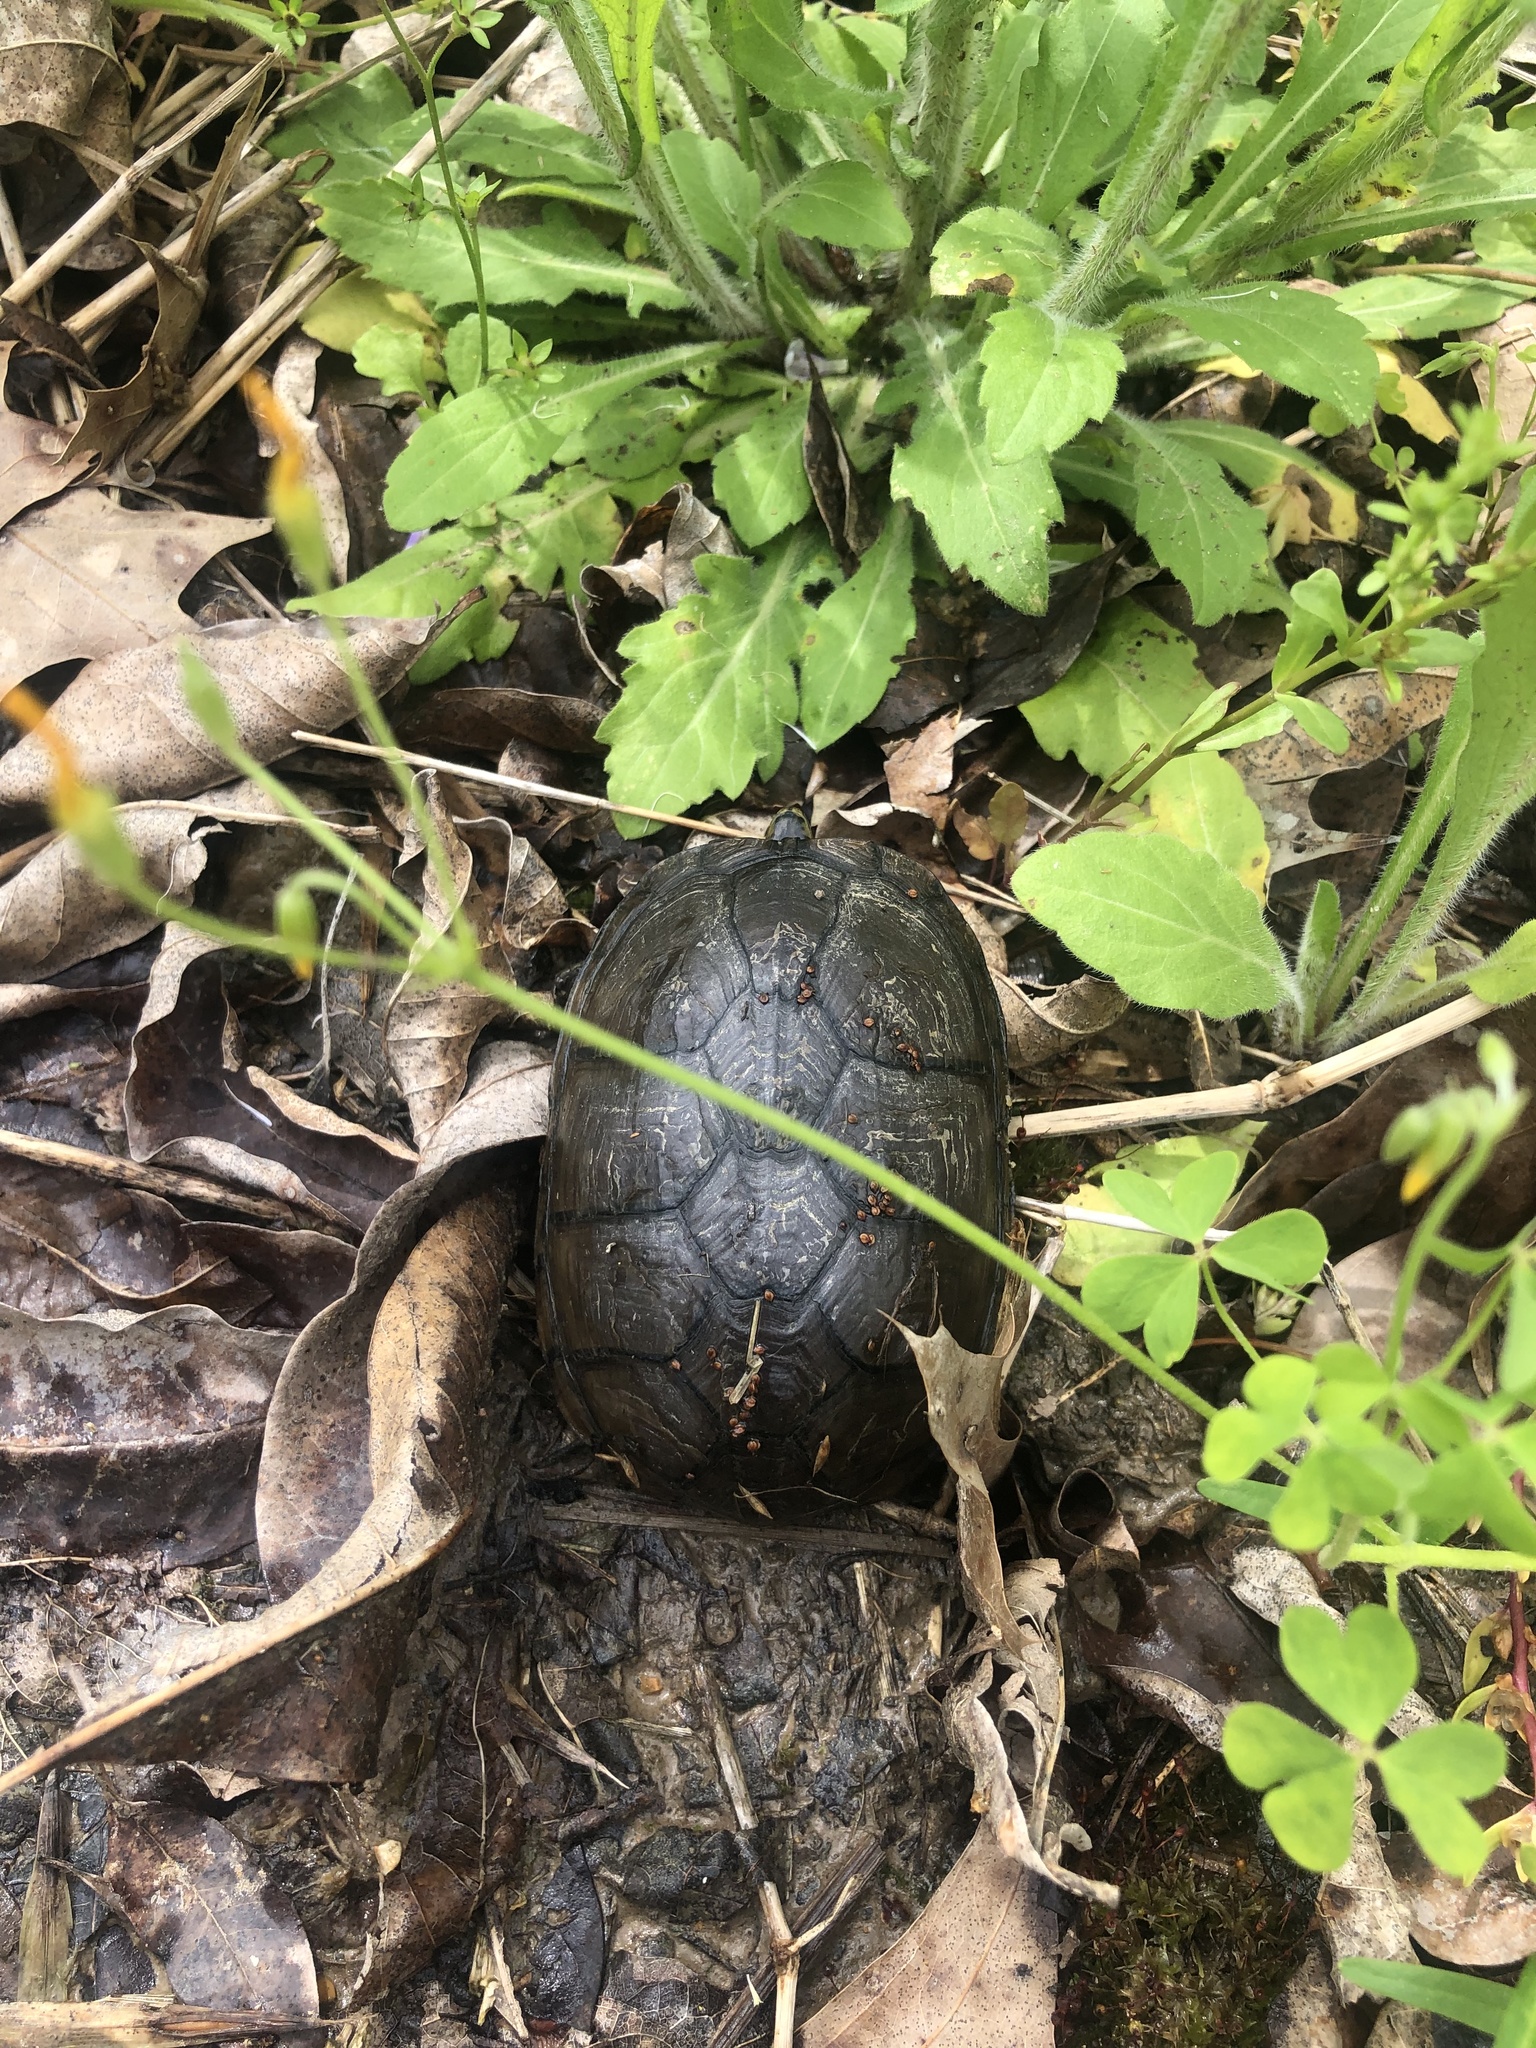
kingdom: Animalia
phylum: Chordata
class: Testudines
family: Kinosternidae
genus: Kinosternon
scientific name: Kinosternon subrubrum
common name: Eastern mud turtle
